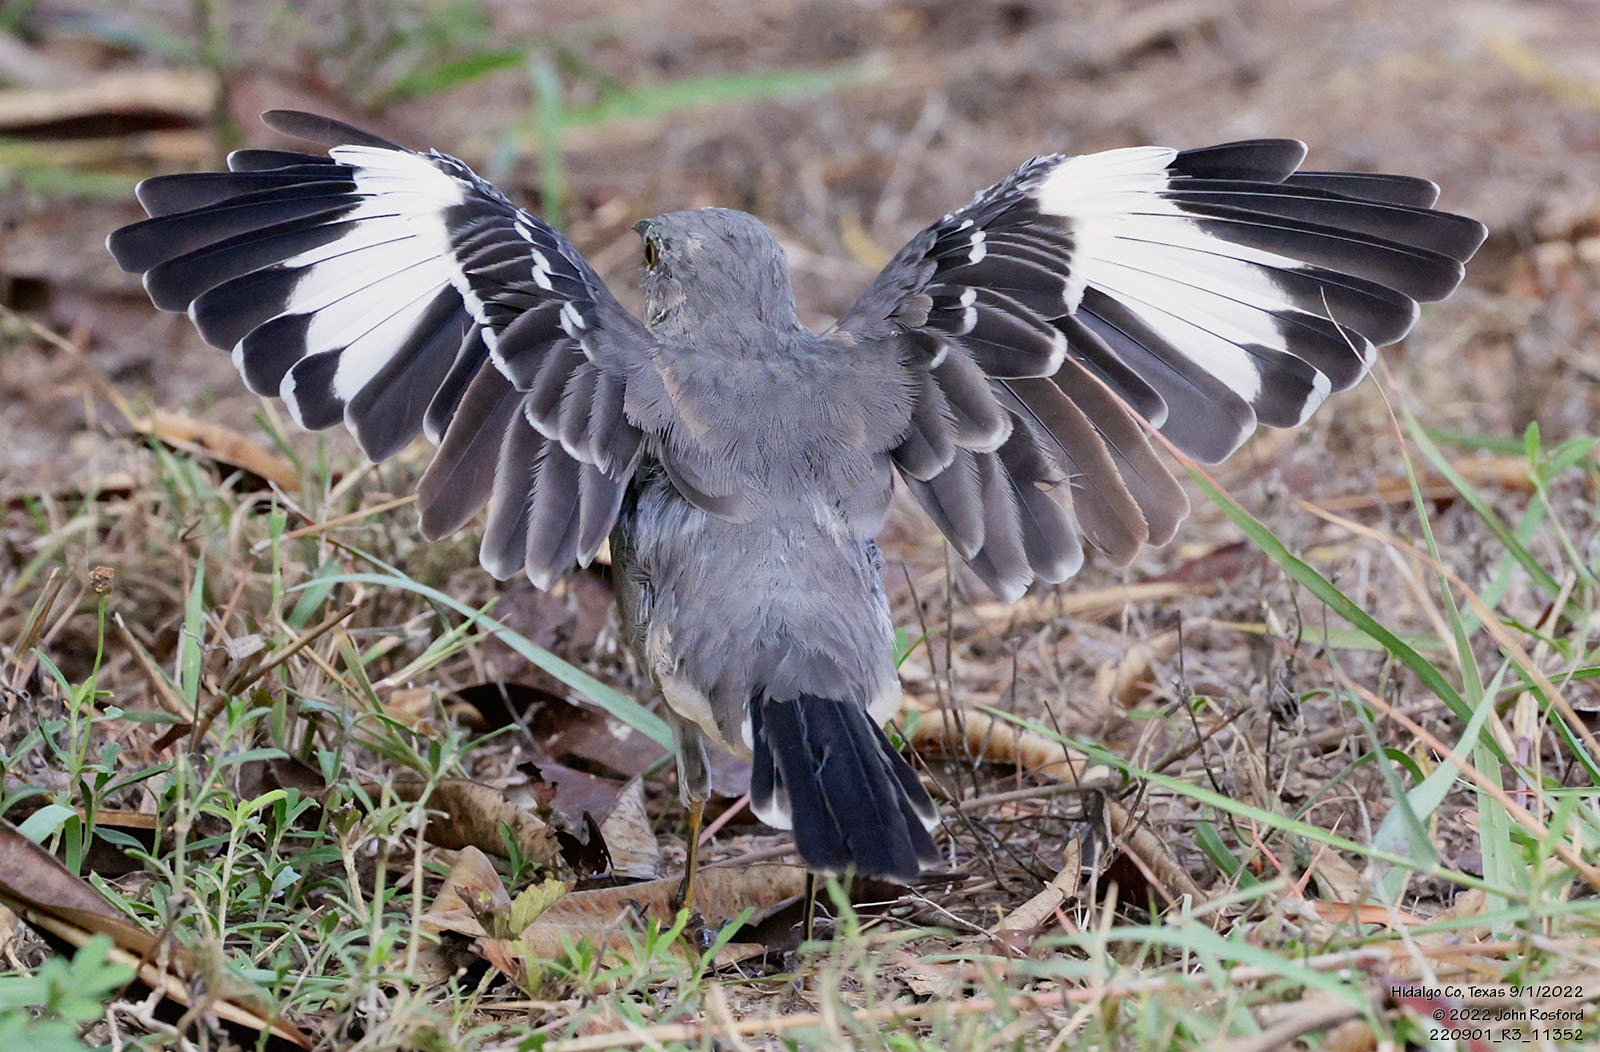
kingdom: Animalia
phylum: Chordata
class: Aves
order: Passeriformes
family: Mimidae
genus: Mimus
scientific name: Mimus polyglottos
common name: Northern mockingbird
